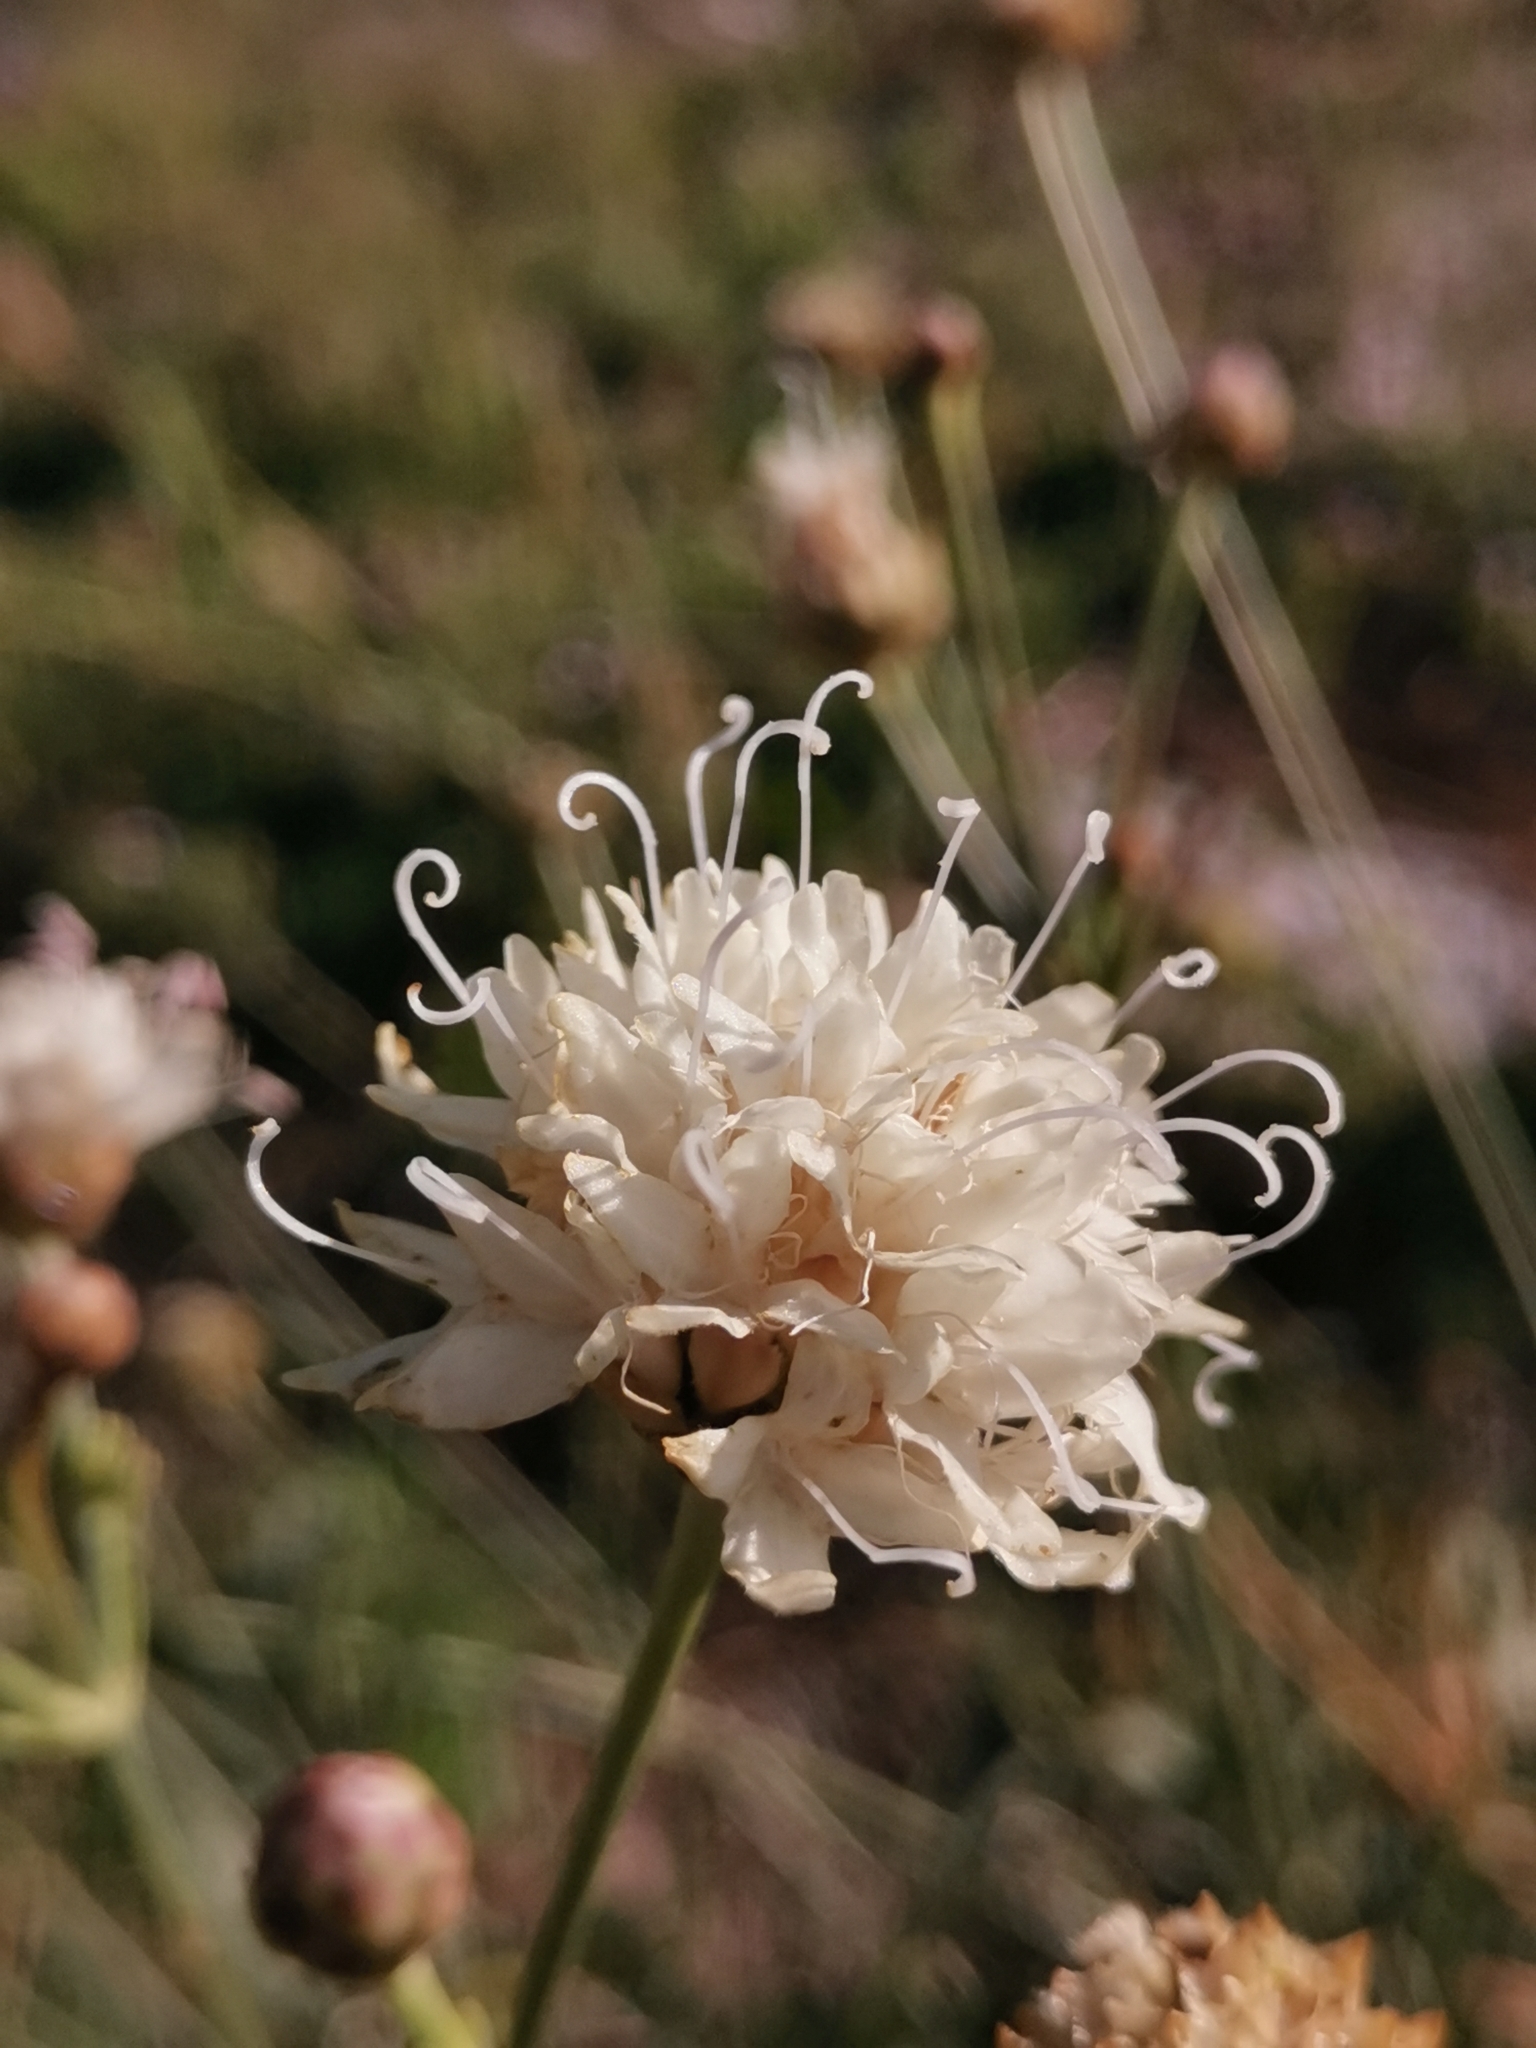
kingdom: Plantae
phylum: Tracheophyta
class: Magnoliopsida
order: Dipsacales
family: Caprifoliaceae
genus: Cephalaria
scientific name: Cephalaria leucantha
